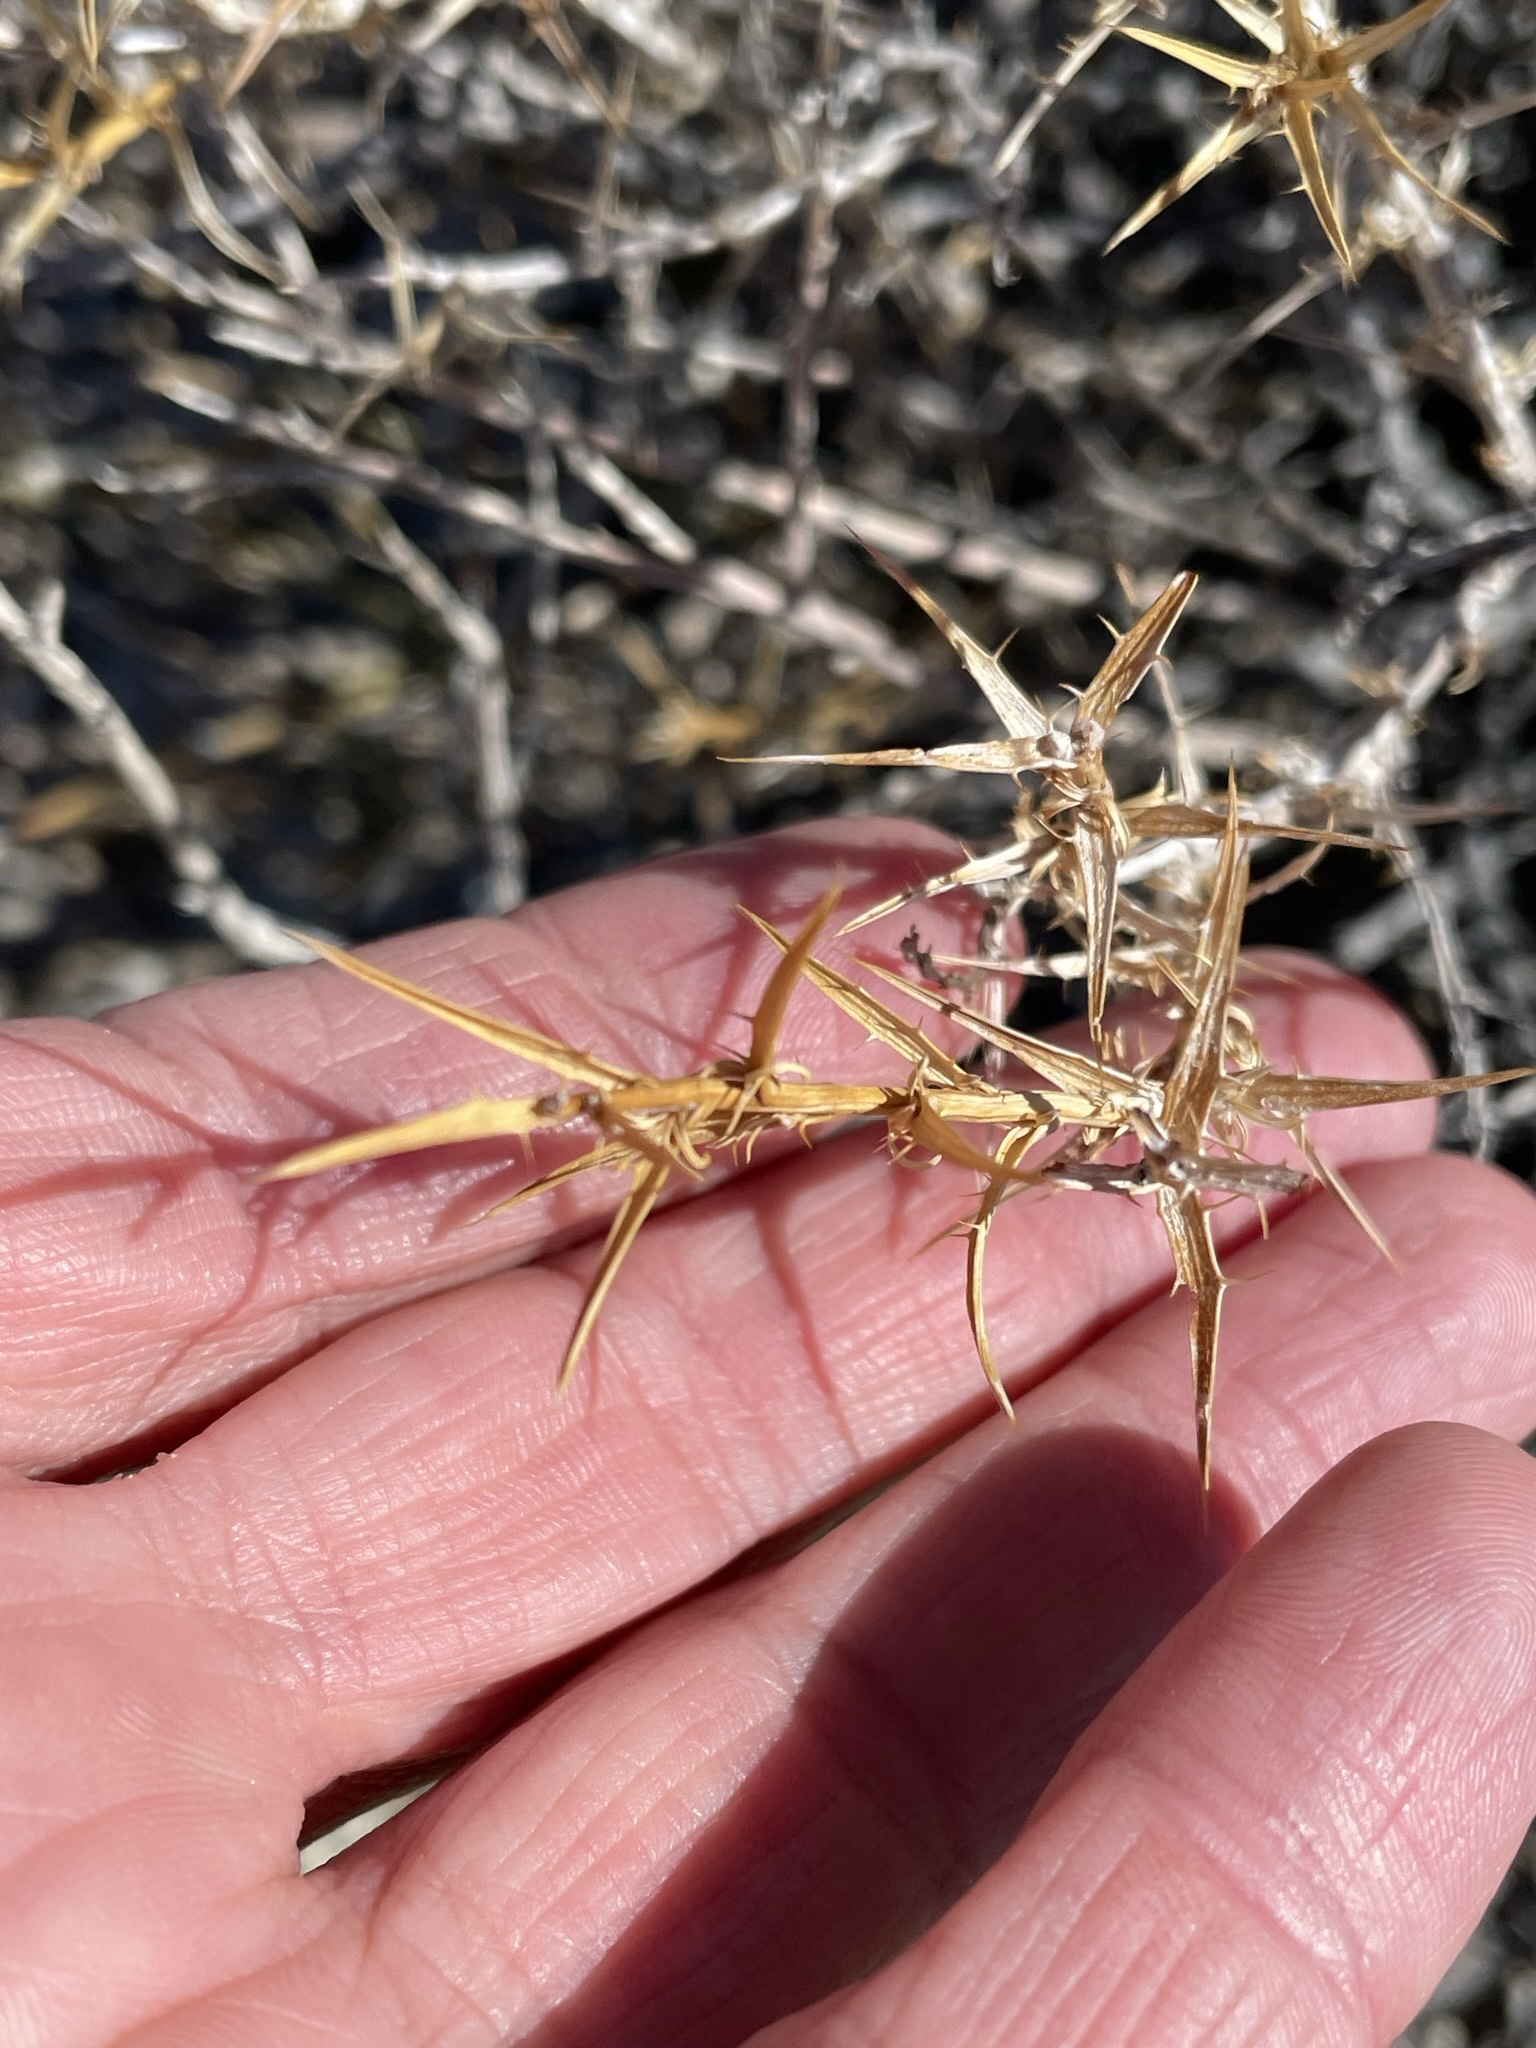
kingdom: Plantae
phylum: Tracheophyta
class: Magnoliopsida
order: Asterales
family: Asteraceae
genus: Hecastocleis
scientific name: Hecastocleis shockleyi
